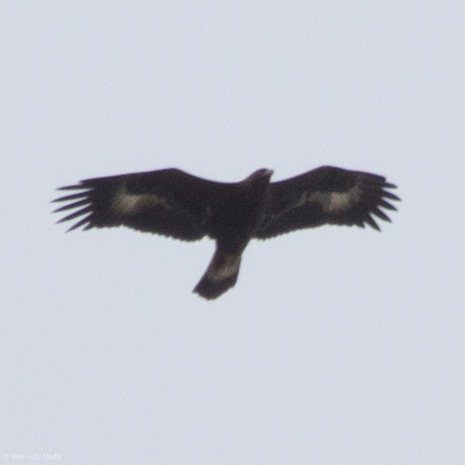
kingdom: Animalia
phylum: Chordata
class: Aves
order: Accipitriformes
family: Accipitridae
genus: Aquila
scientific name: Aquila chrysaetos
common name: Golden eagle
